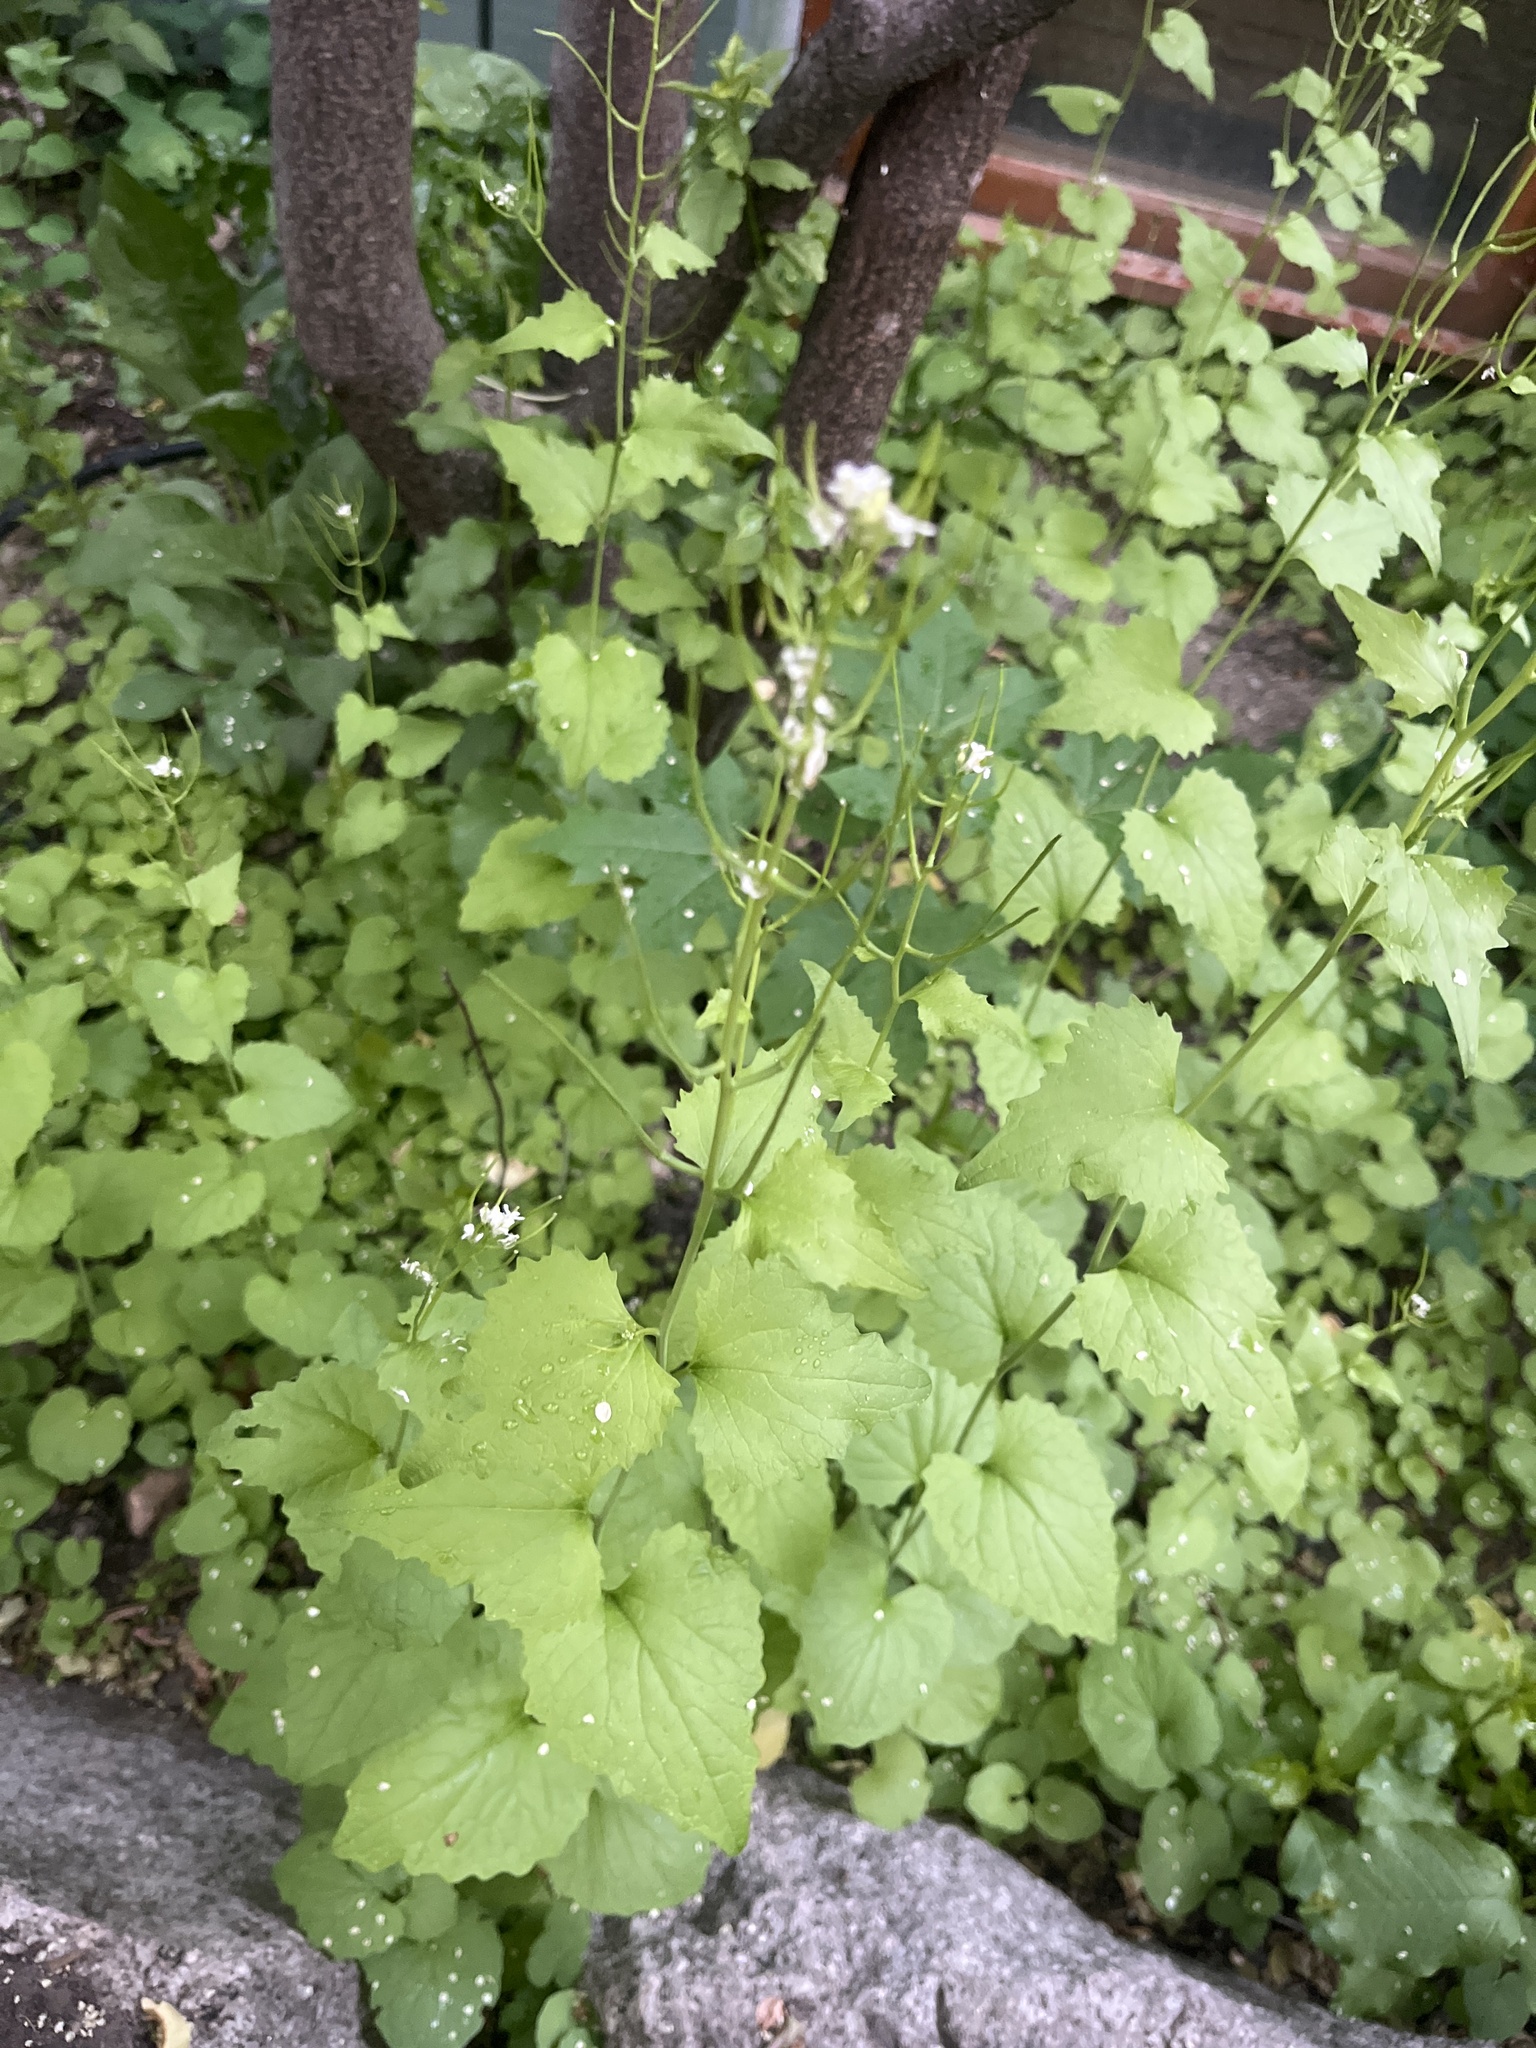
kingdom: Plantae
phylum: Tracheophyta
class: Magnoliopsida
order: Brassicales
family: Brassicaceae
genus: Alliaria
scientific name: Alliaria petiolata
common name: Garlic mustard
